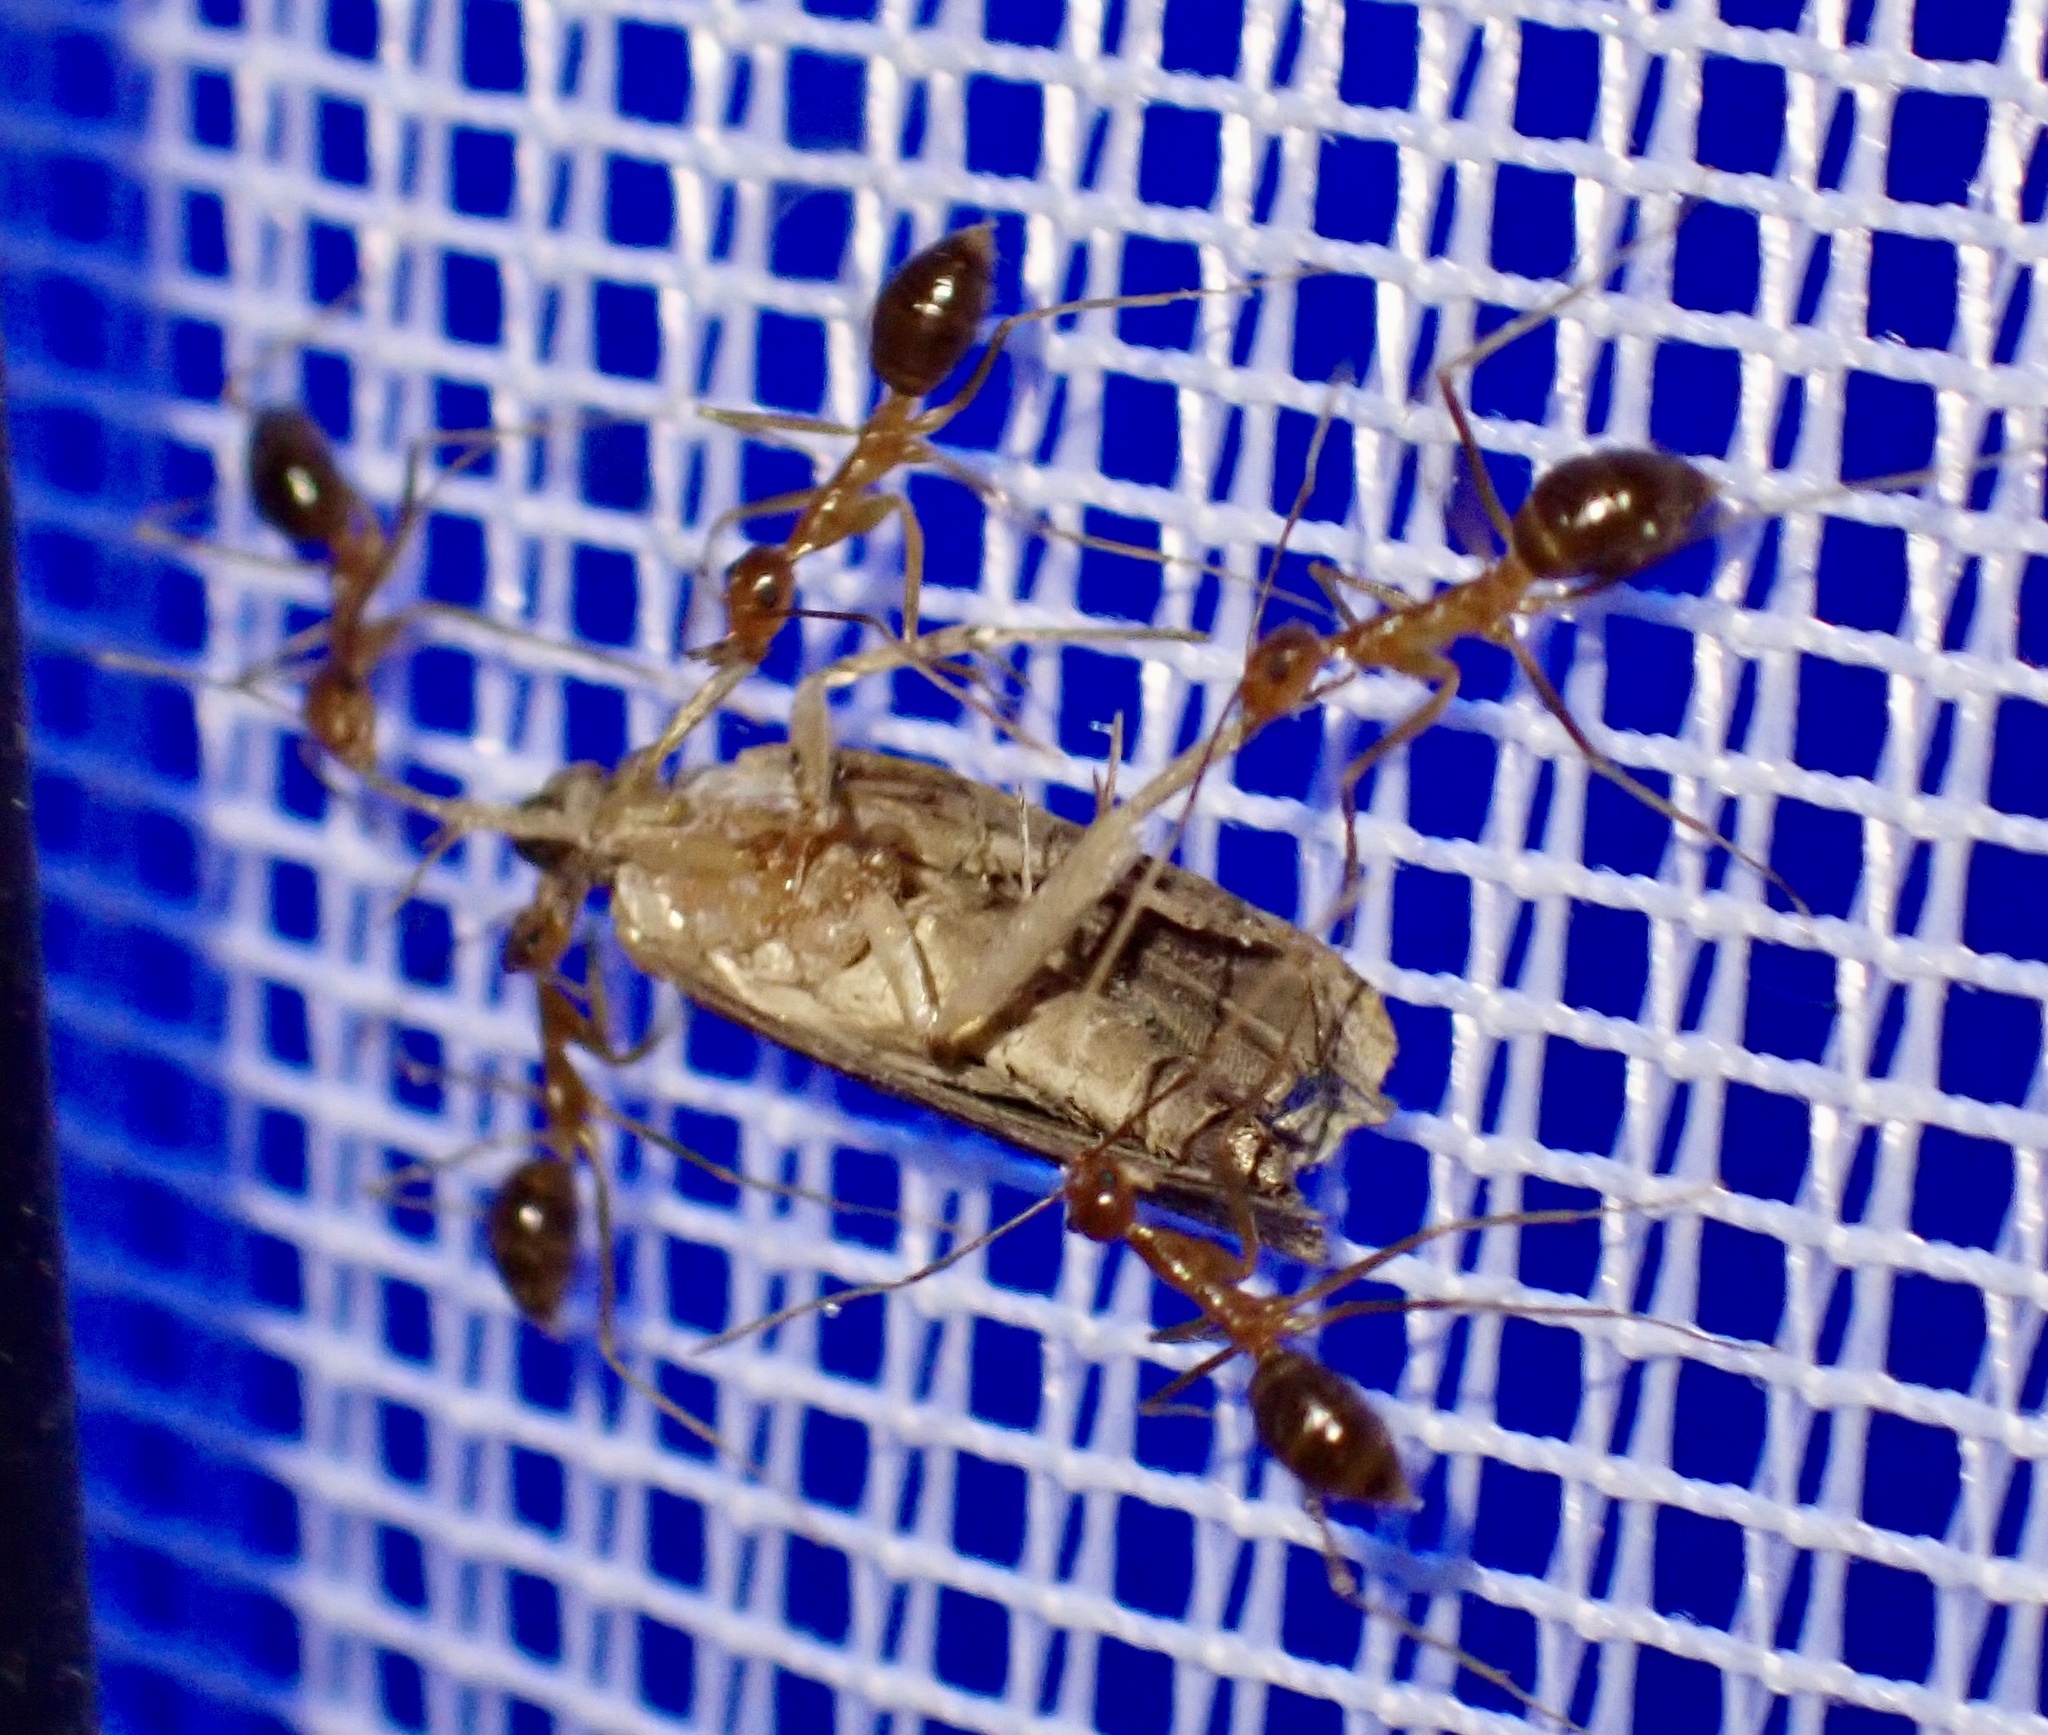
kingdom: Animalia
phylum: Arthropoda
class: Insecta
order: Hymenoptera
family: Formicidae
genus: Anoplolepis
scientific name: Anoplolepis gracilipes
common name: Ant
